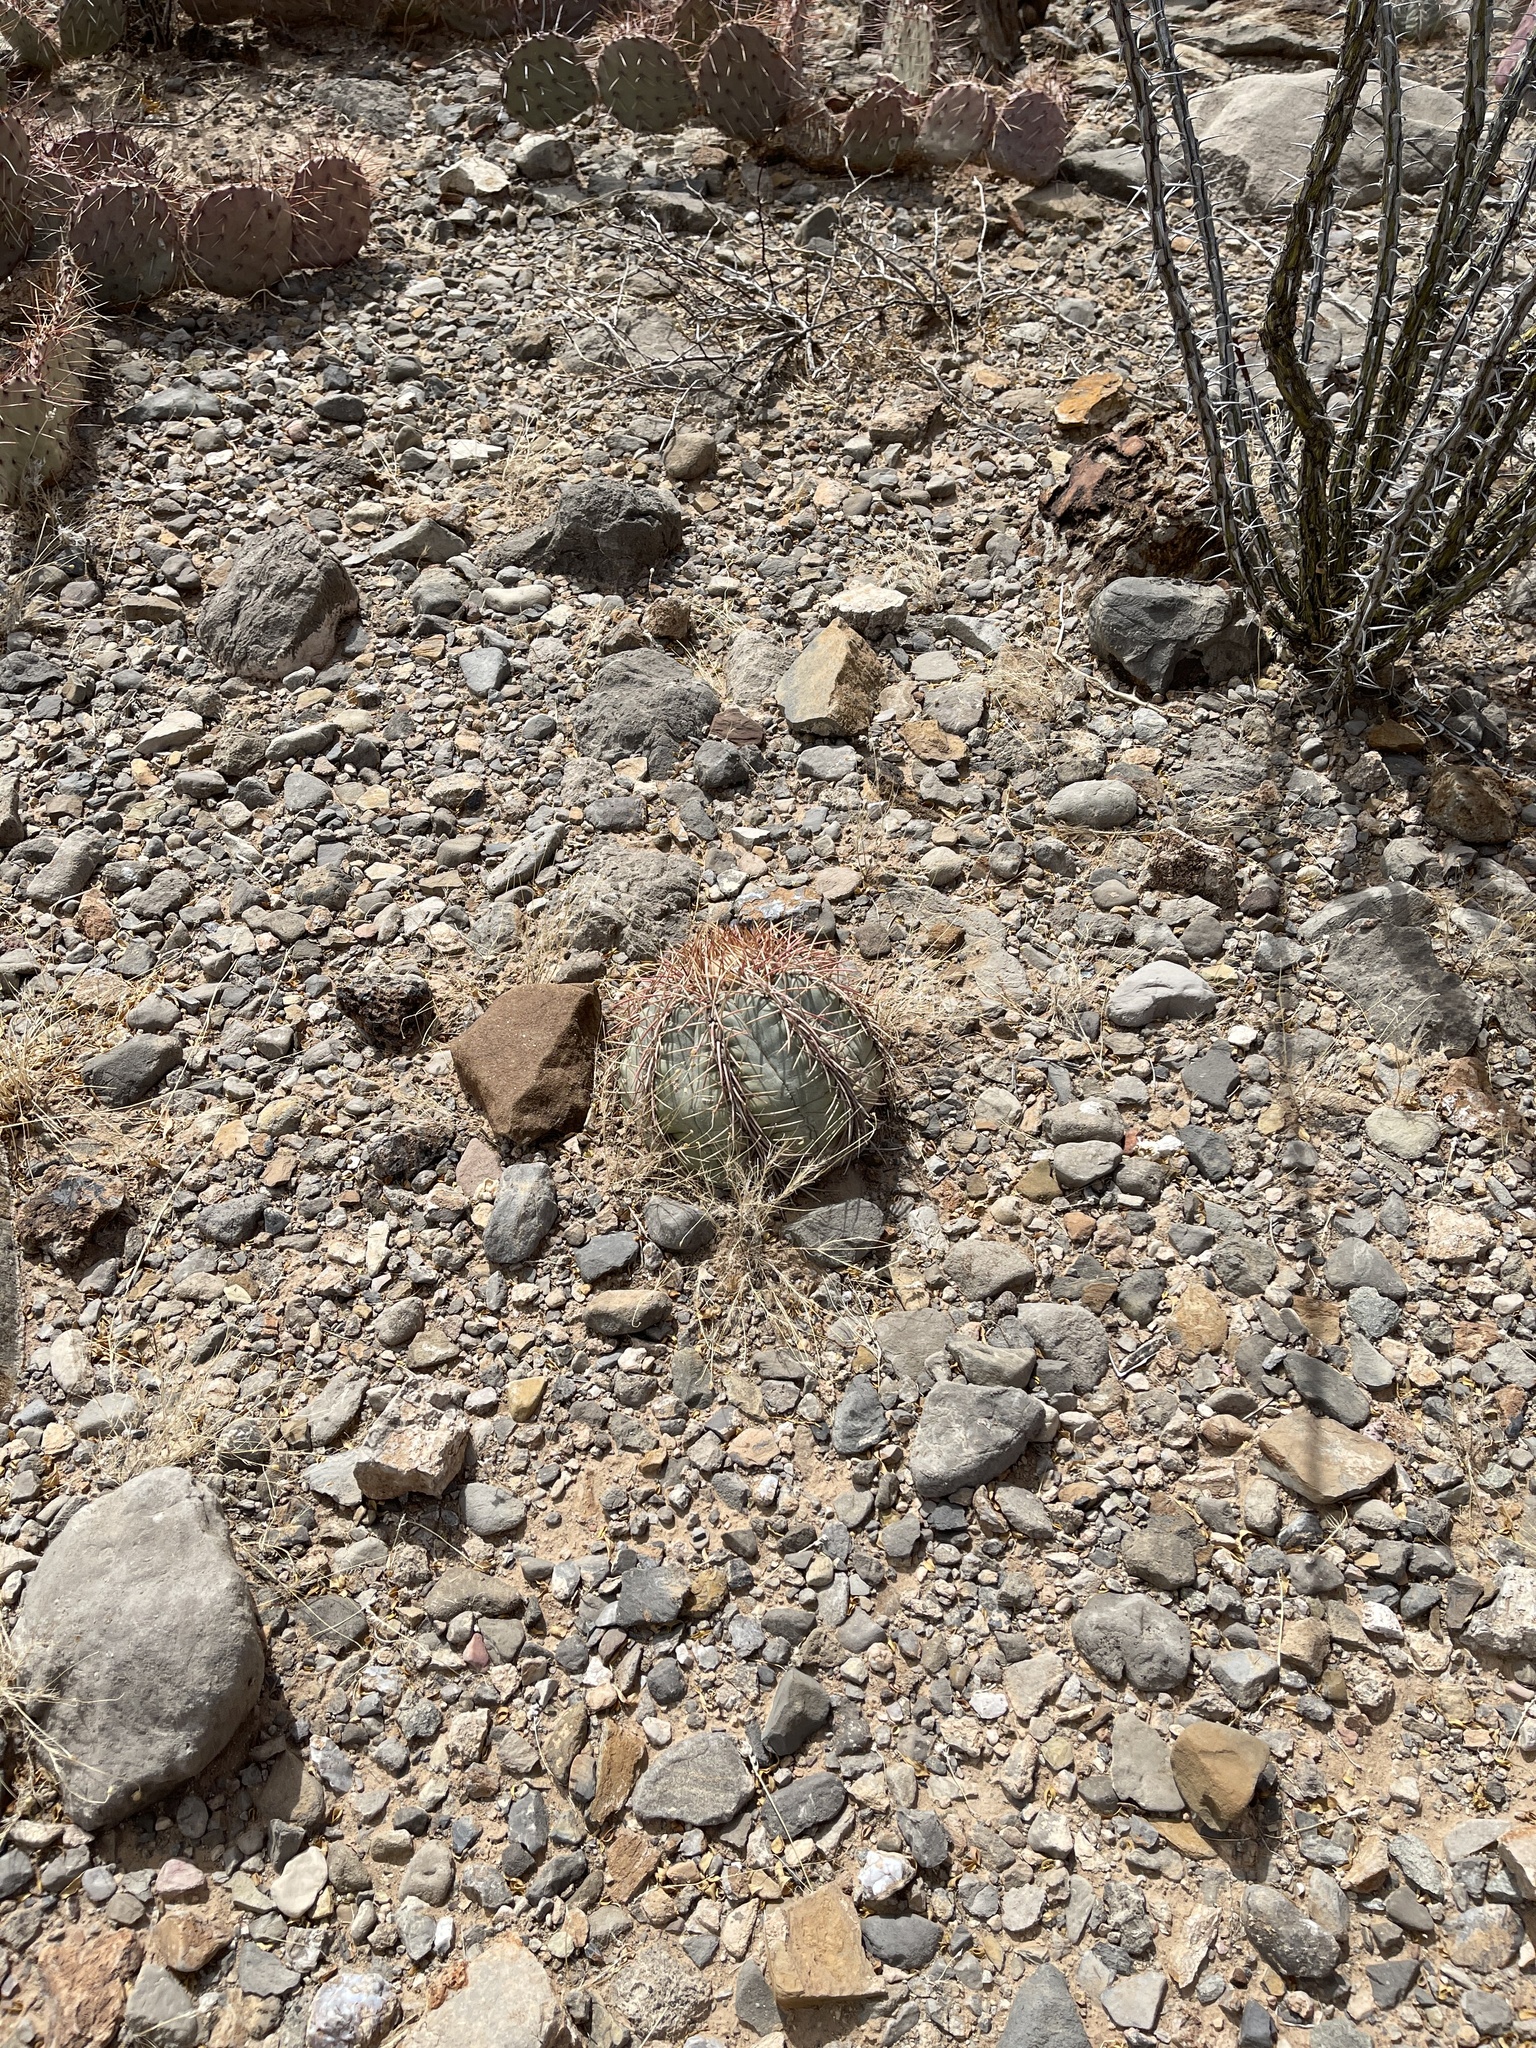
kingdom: Plantae
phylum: Tracheophyta
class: Magnoliopsida
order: Caryophyllales
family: Cactaceae
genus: Echinocactus
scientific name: Echinocactus horizonthalonius
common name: Devilshead
